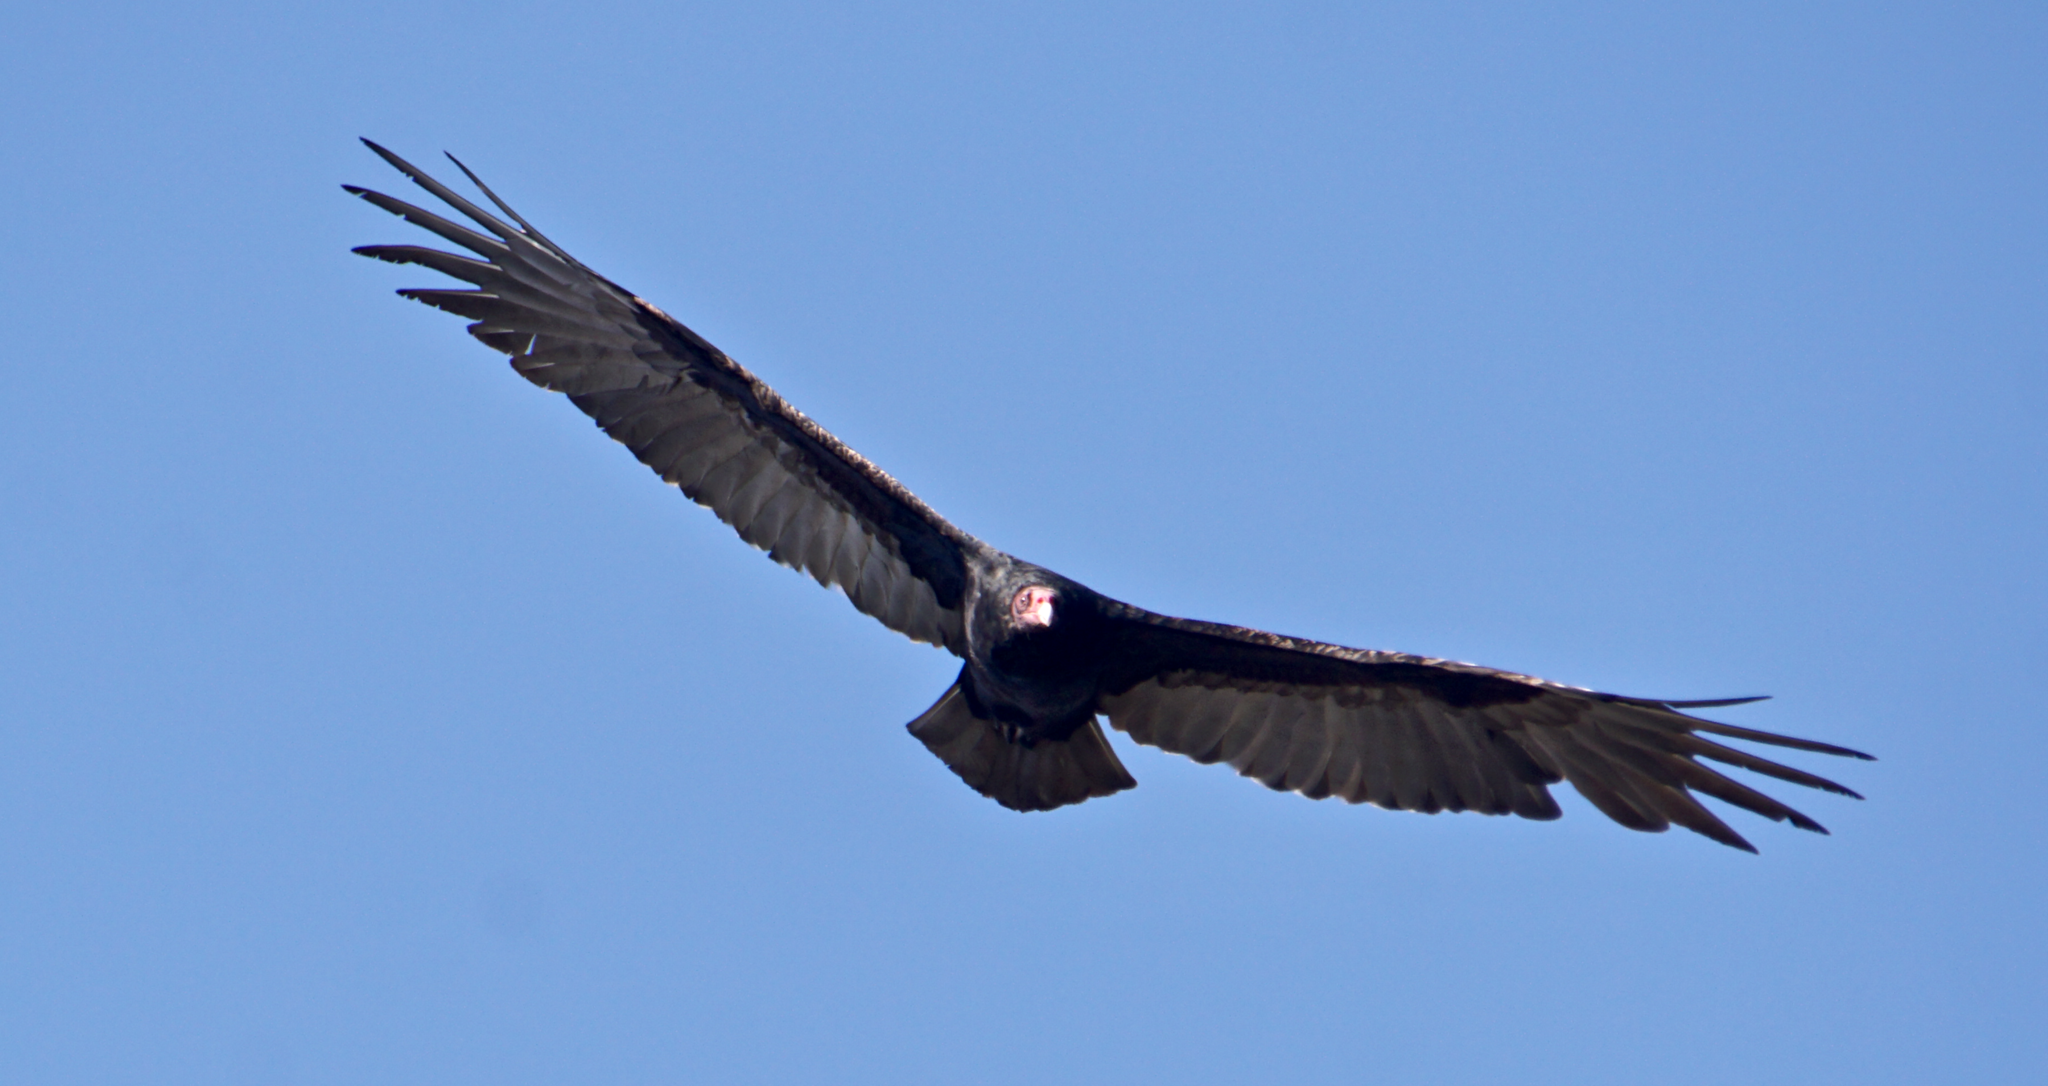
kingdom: Animalia
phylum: Chordata
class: Aves
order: Accipitriformes
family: Cathartidae
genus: Cathartes
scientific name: Cathartes aura
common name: Turkey vulture
